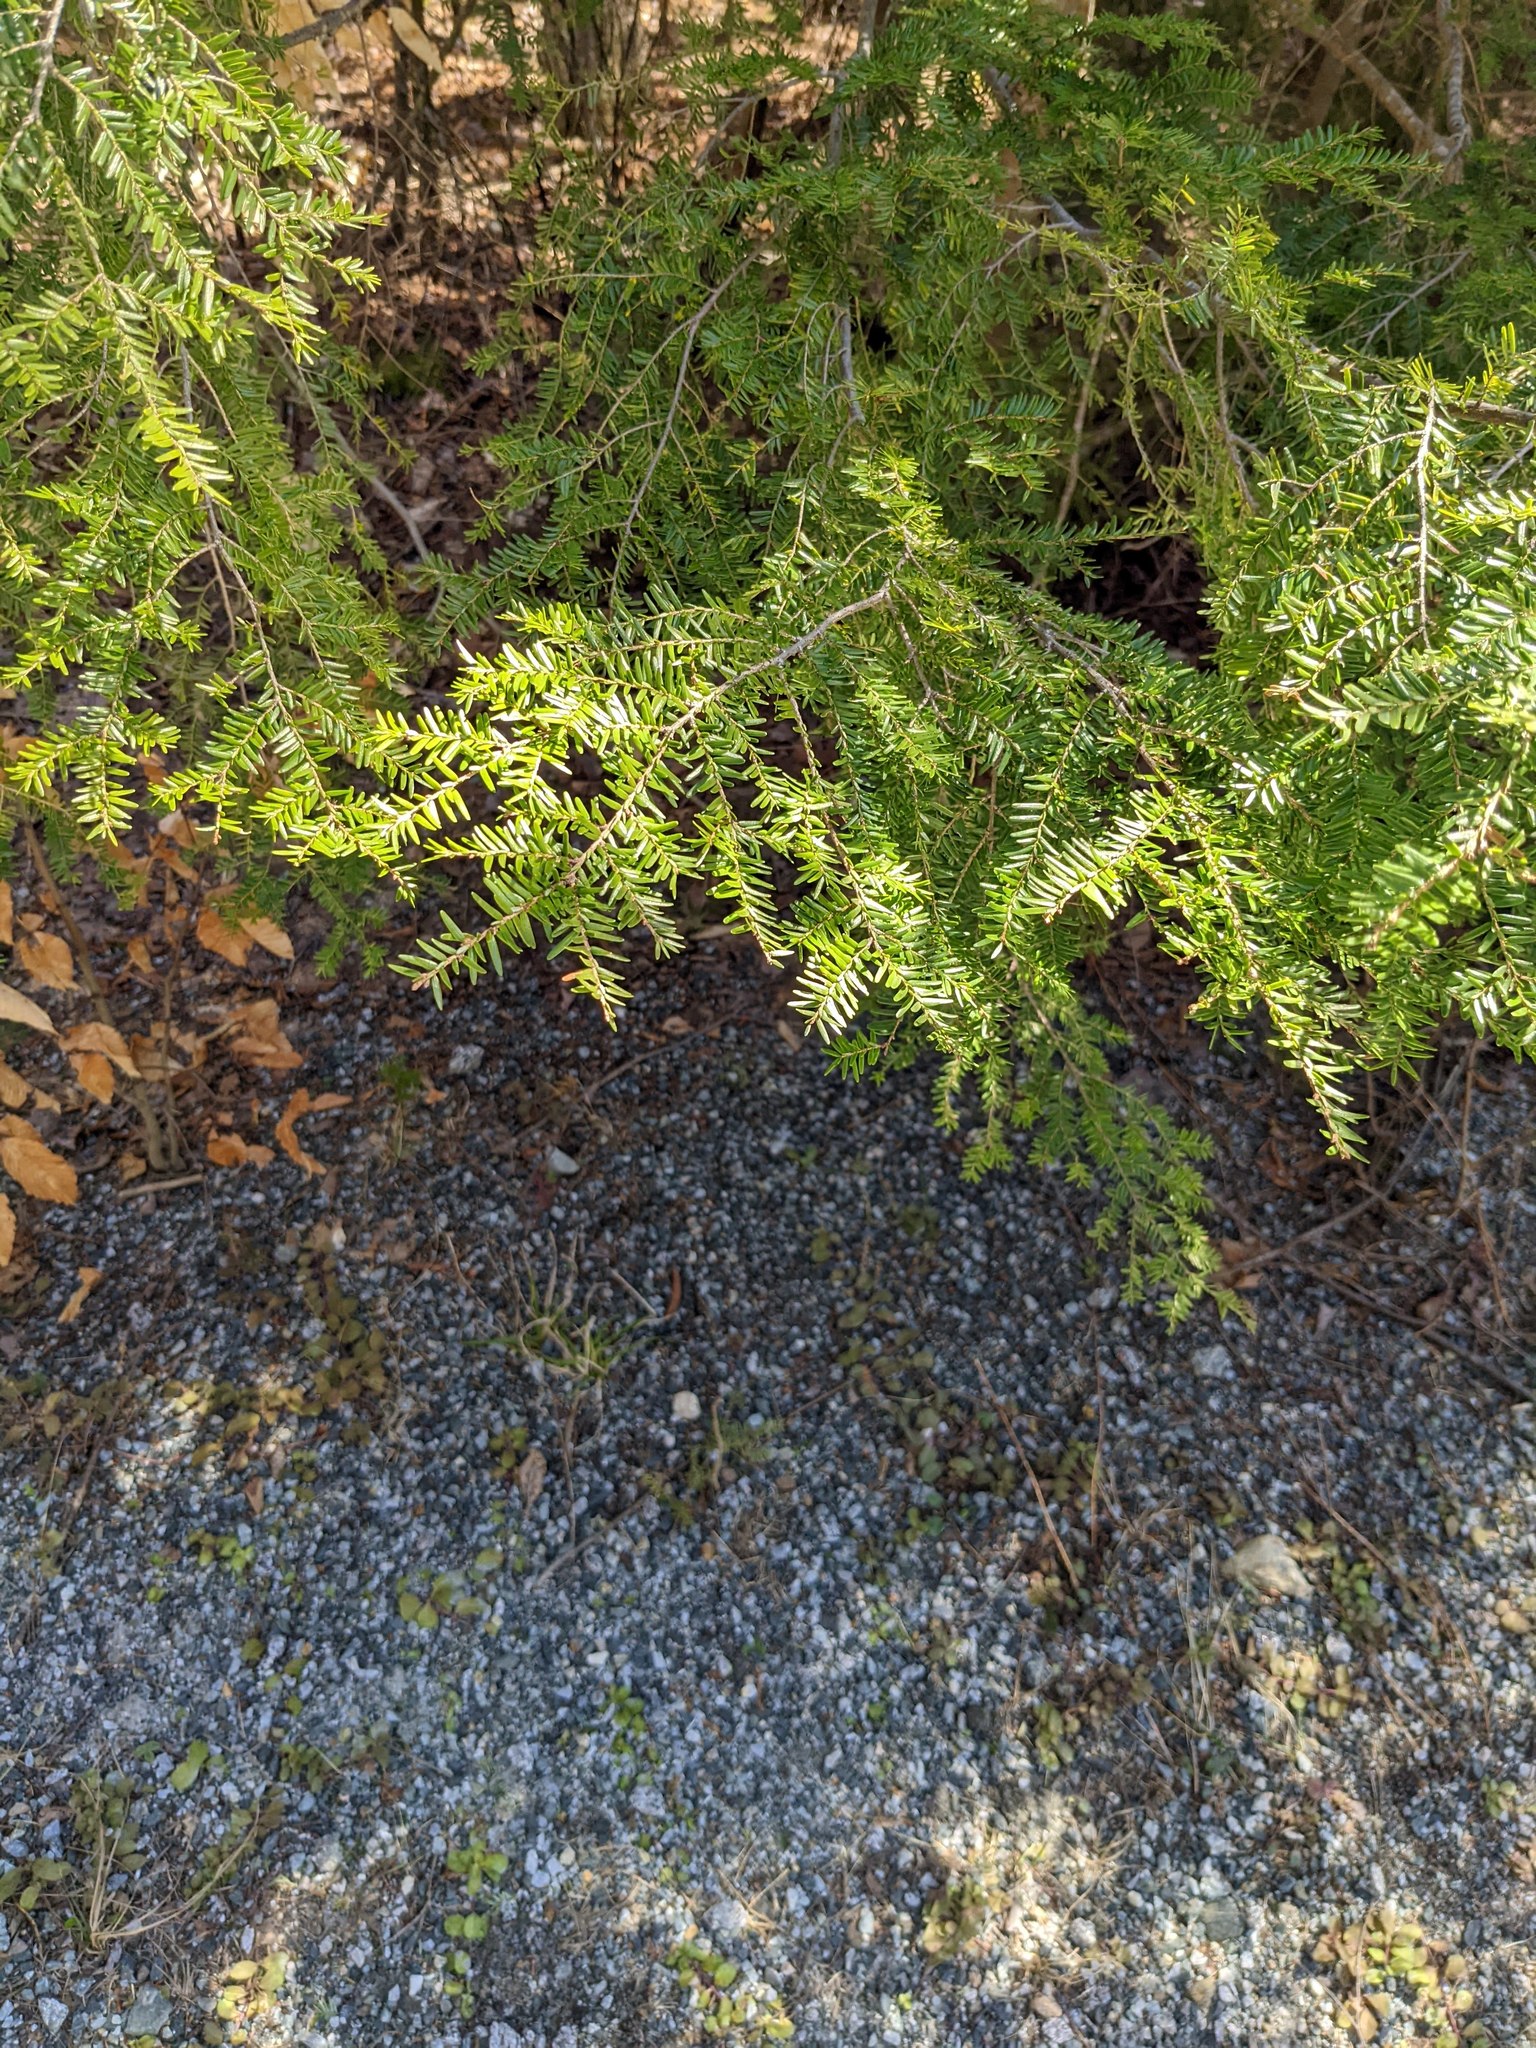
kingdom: Plantae
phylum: Tracheophyta
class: Pinopsida
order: Pinales
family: Pinaceae
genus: Tsuga
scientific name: Tsuga canadensis
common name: Eastern hemlock
